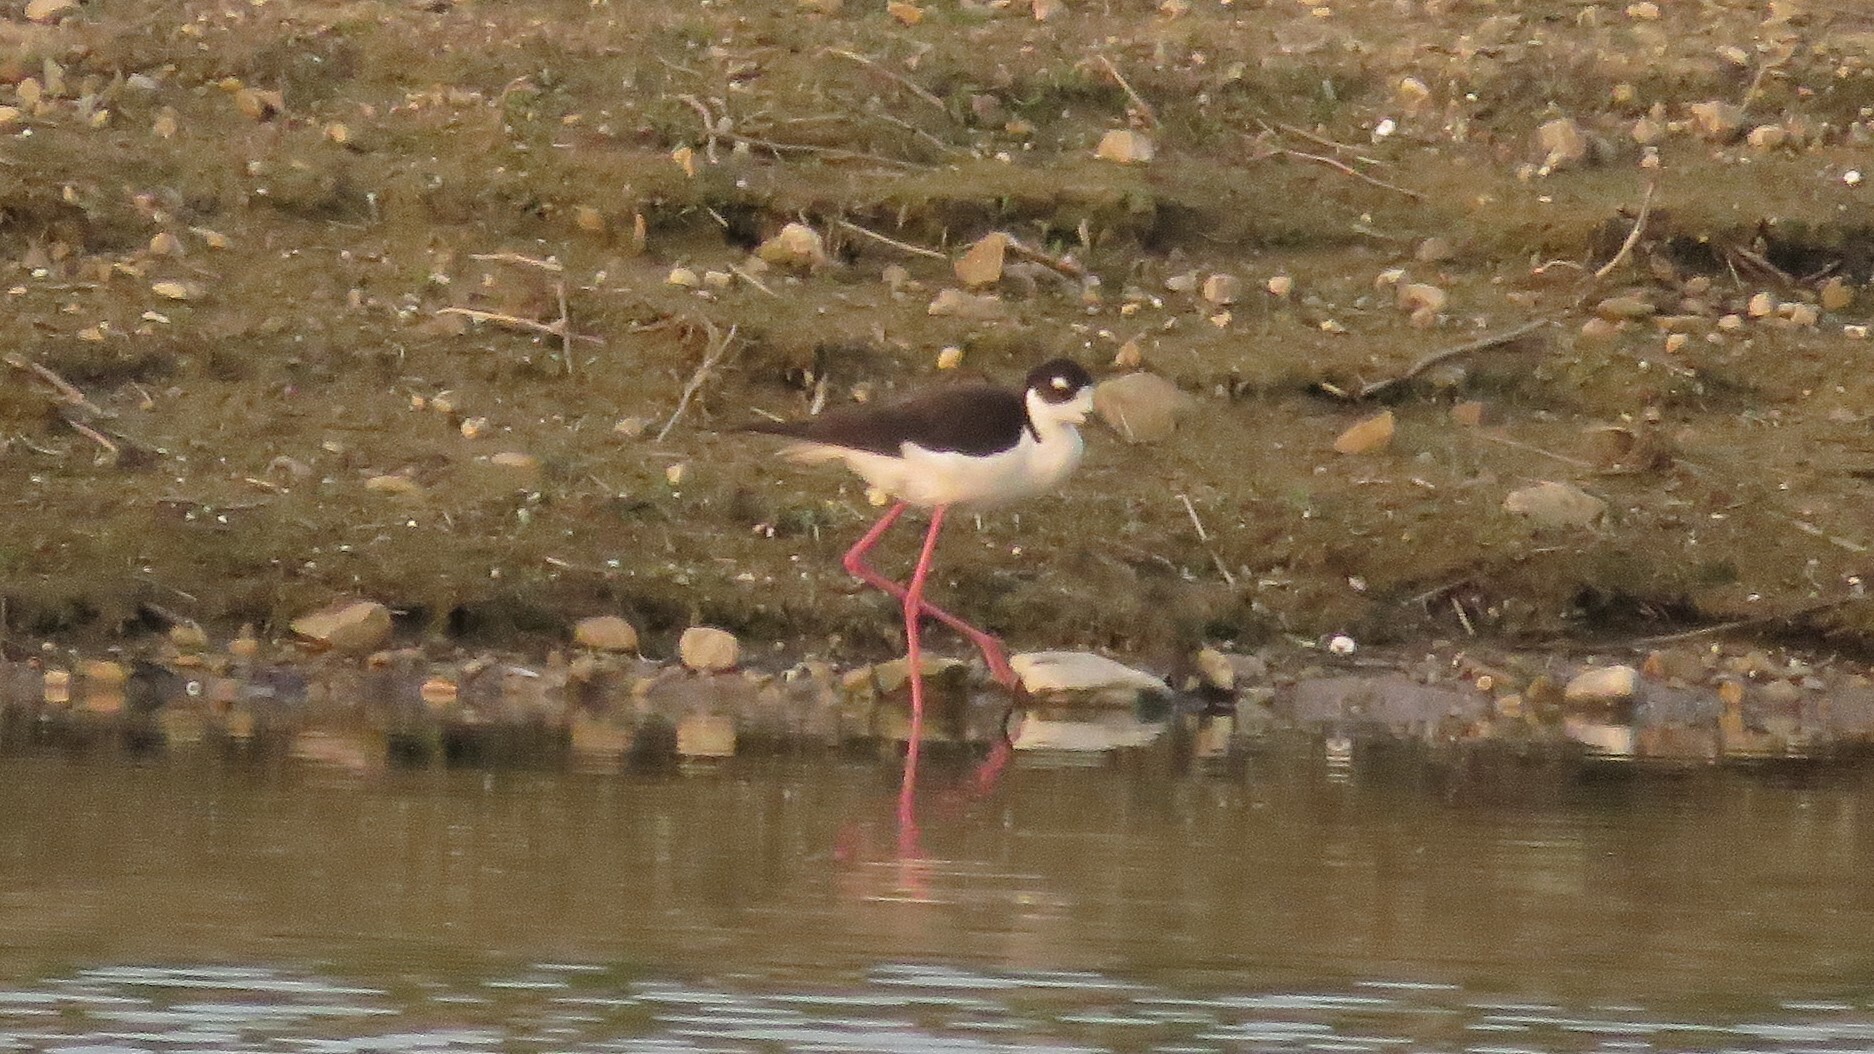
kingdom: Animalia
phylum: Chordata
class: Aves
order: Charadriiformes
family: Recurvirostridae
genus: Himantopus
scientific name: Himantopus mexicanus
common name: Black-necked stilt
